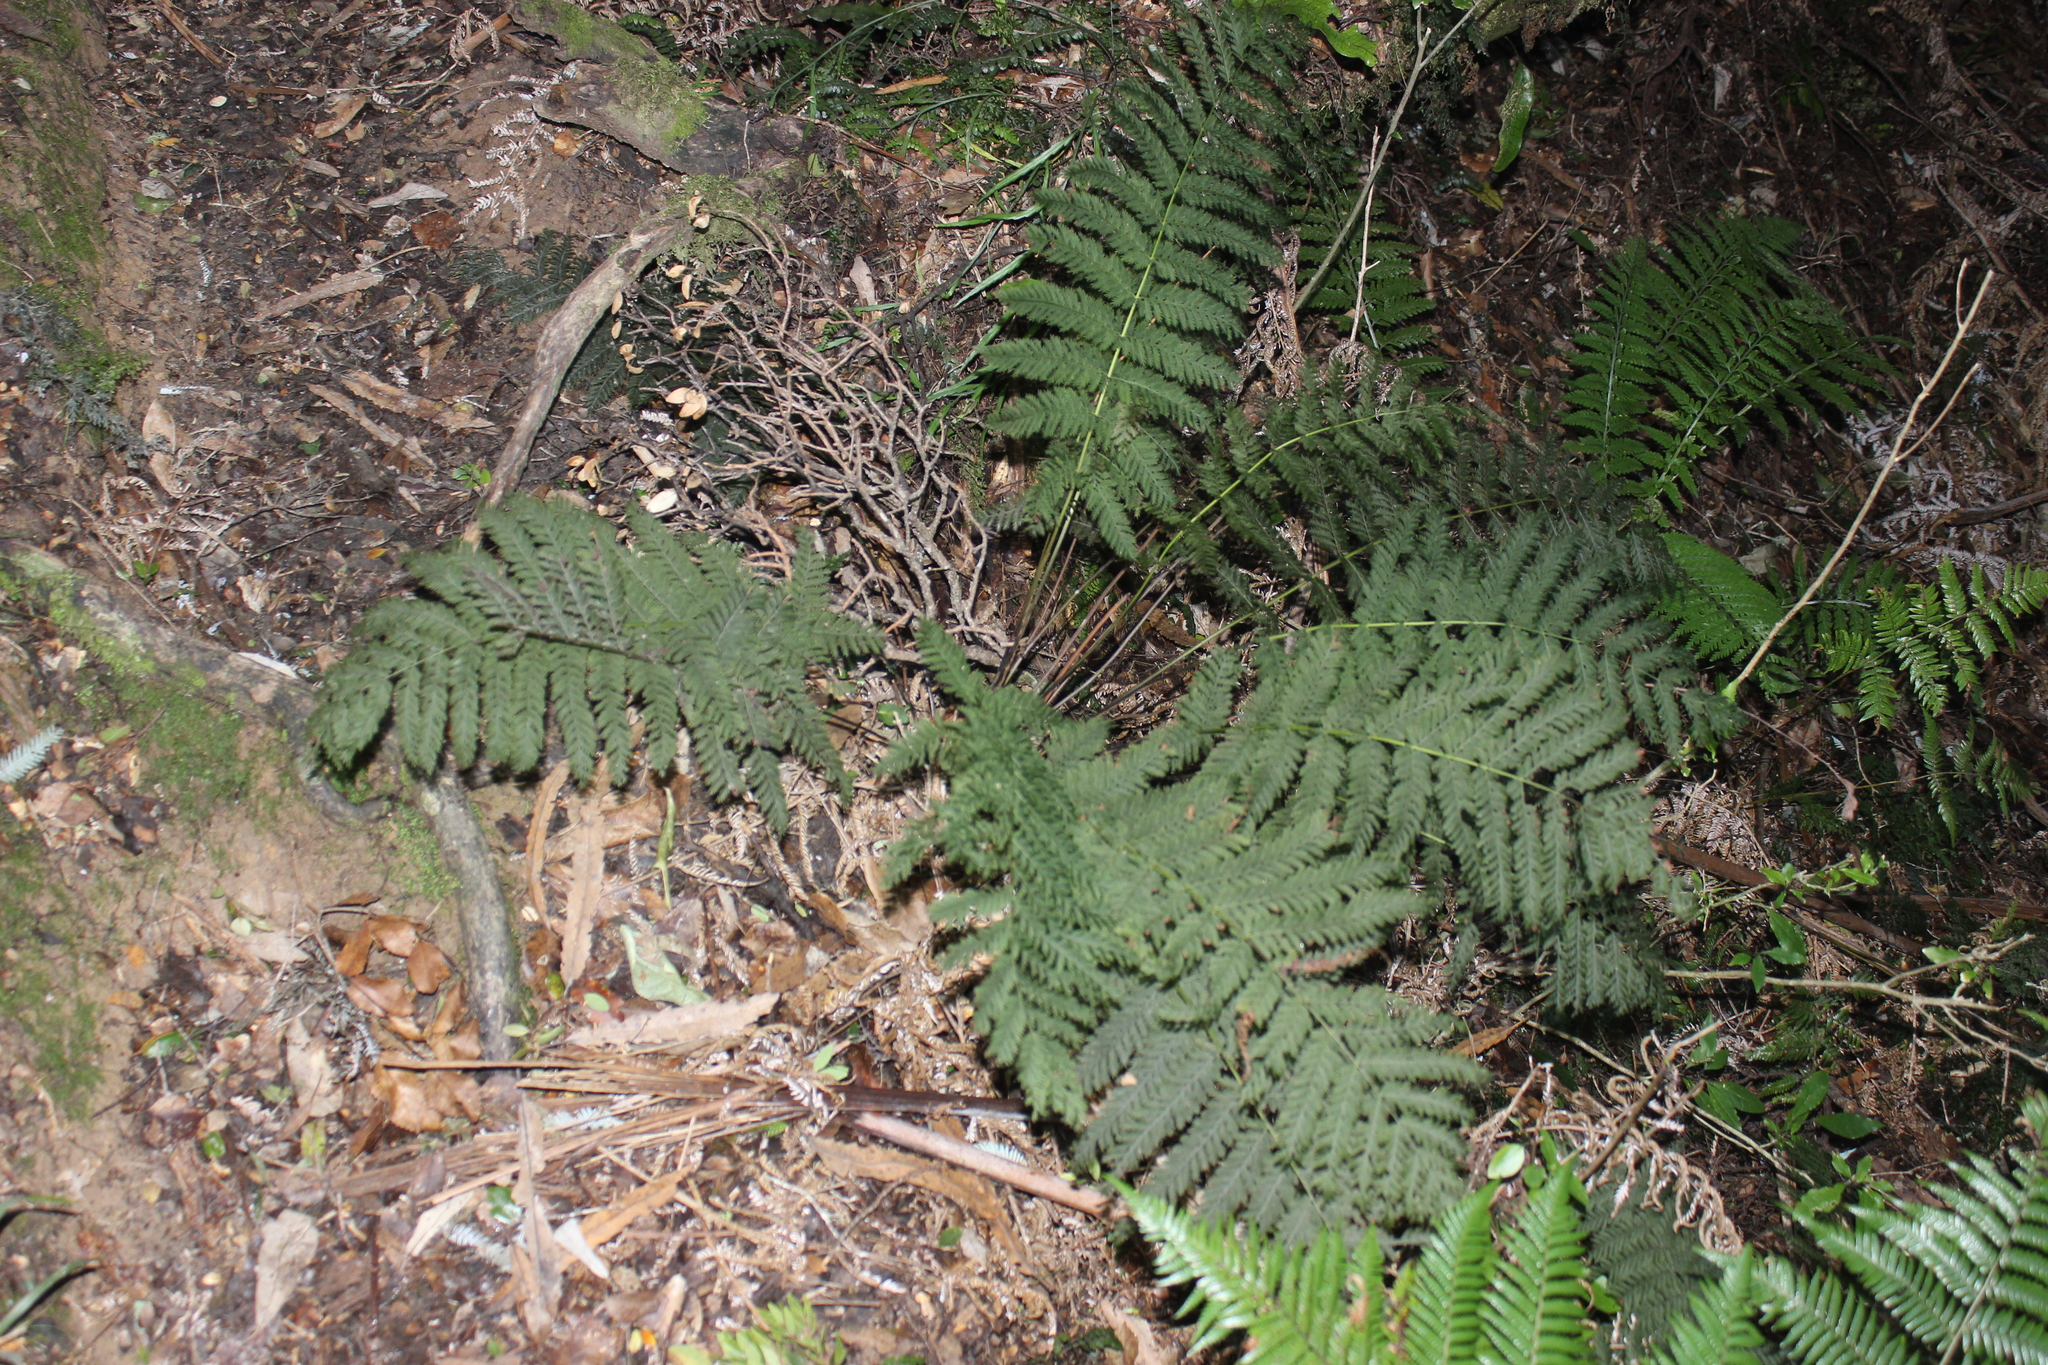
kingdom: Plantae
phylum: Tracheophyta
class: Polypodiopsida
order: Osmundales
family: Osmundaceae
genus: Leptopteris
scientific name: Leptopteris hymenophylloides
